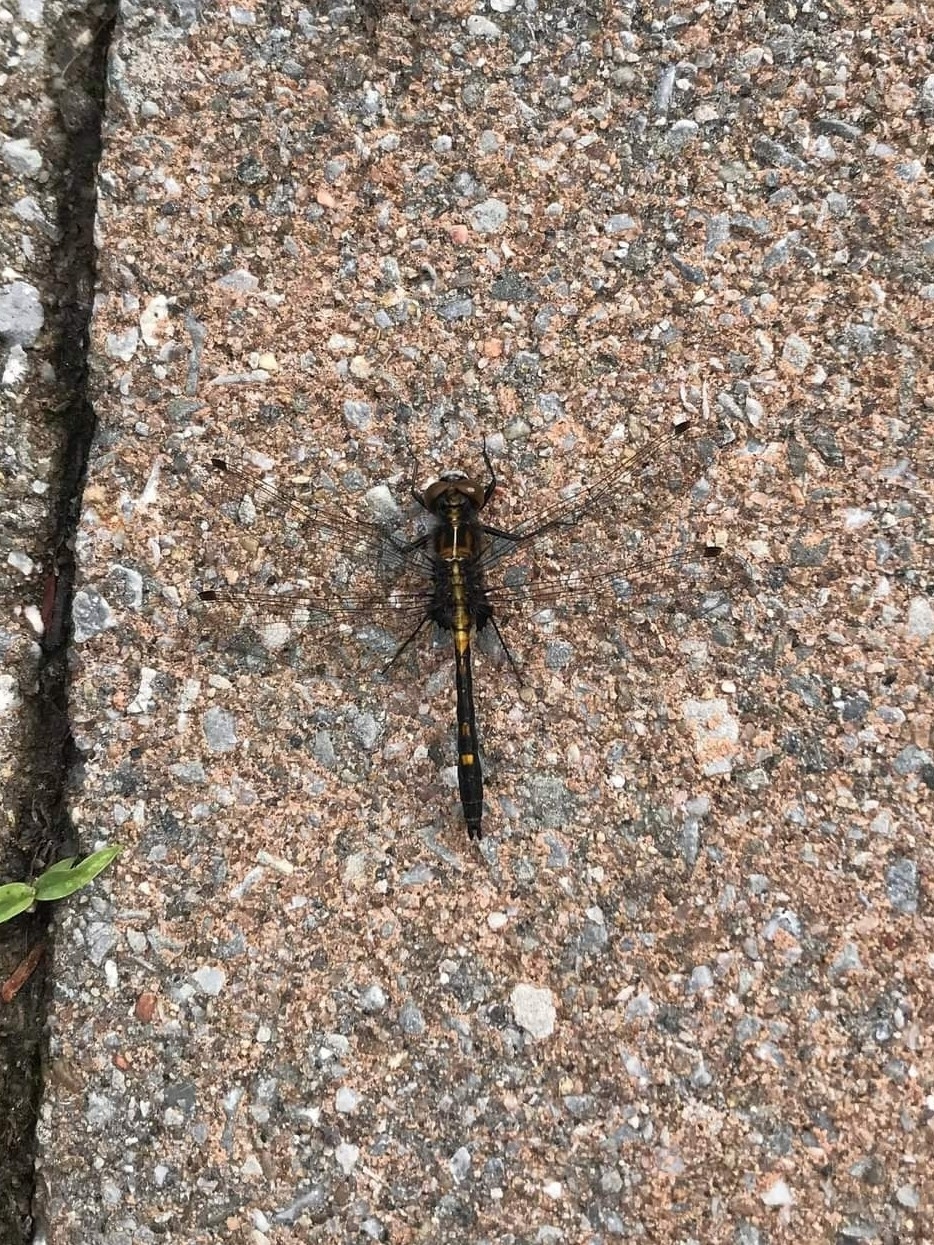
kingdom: Animalia
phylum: Arthropoda
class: Insecta
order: Odonata
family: Libellulidae
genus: Leucorrhinia
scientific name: Leucorrhinia intacta
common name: Dot-tailed whiteface
